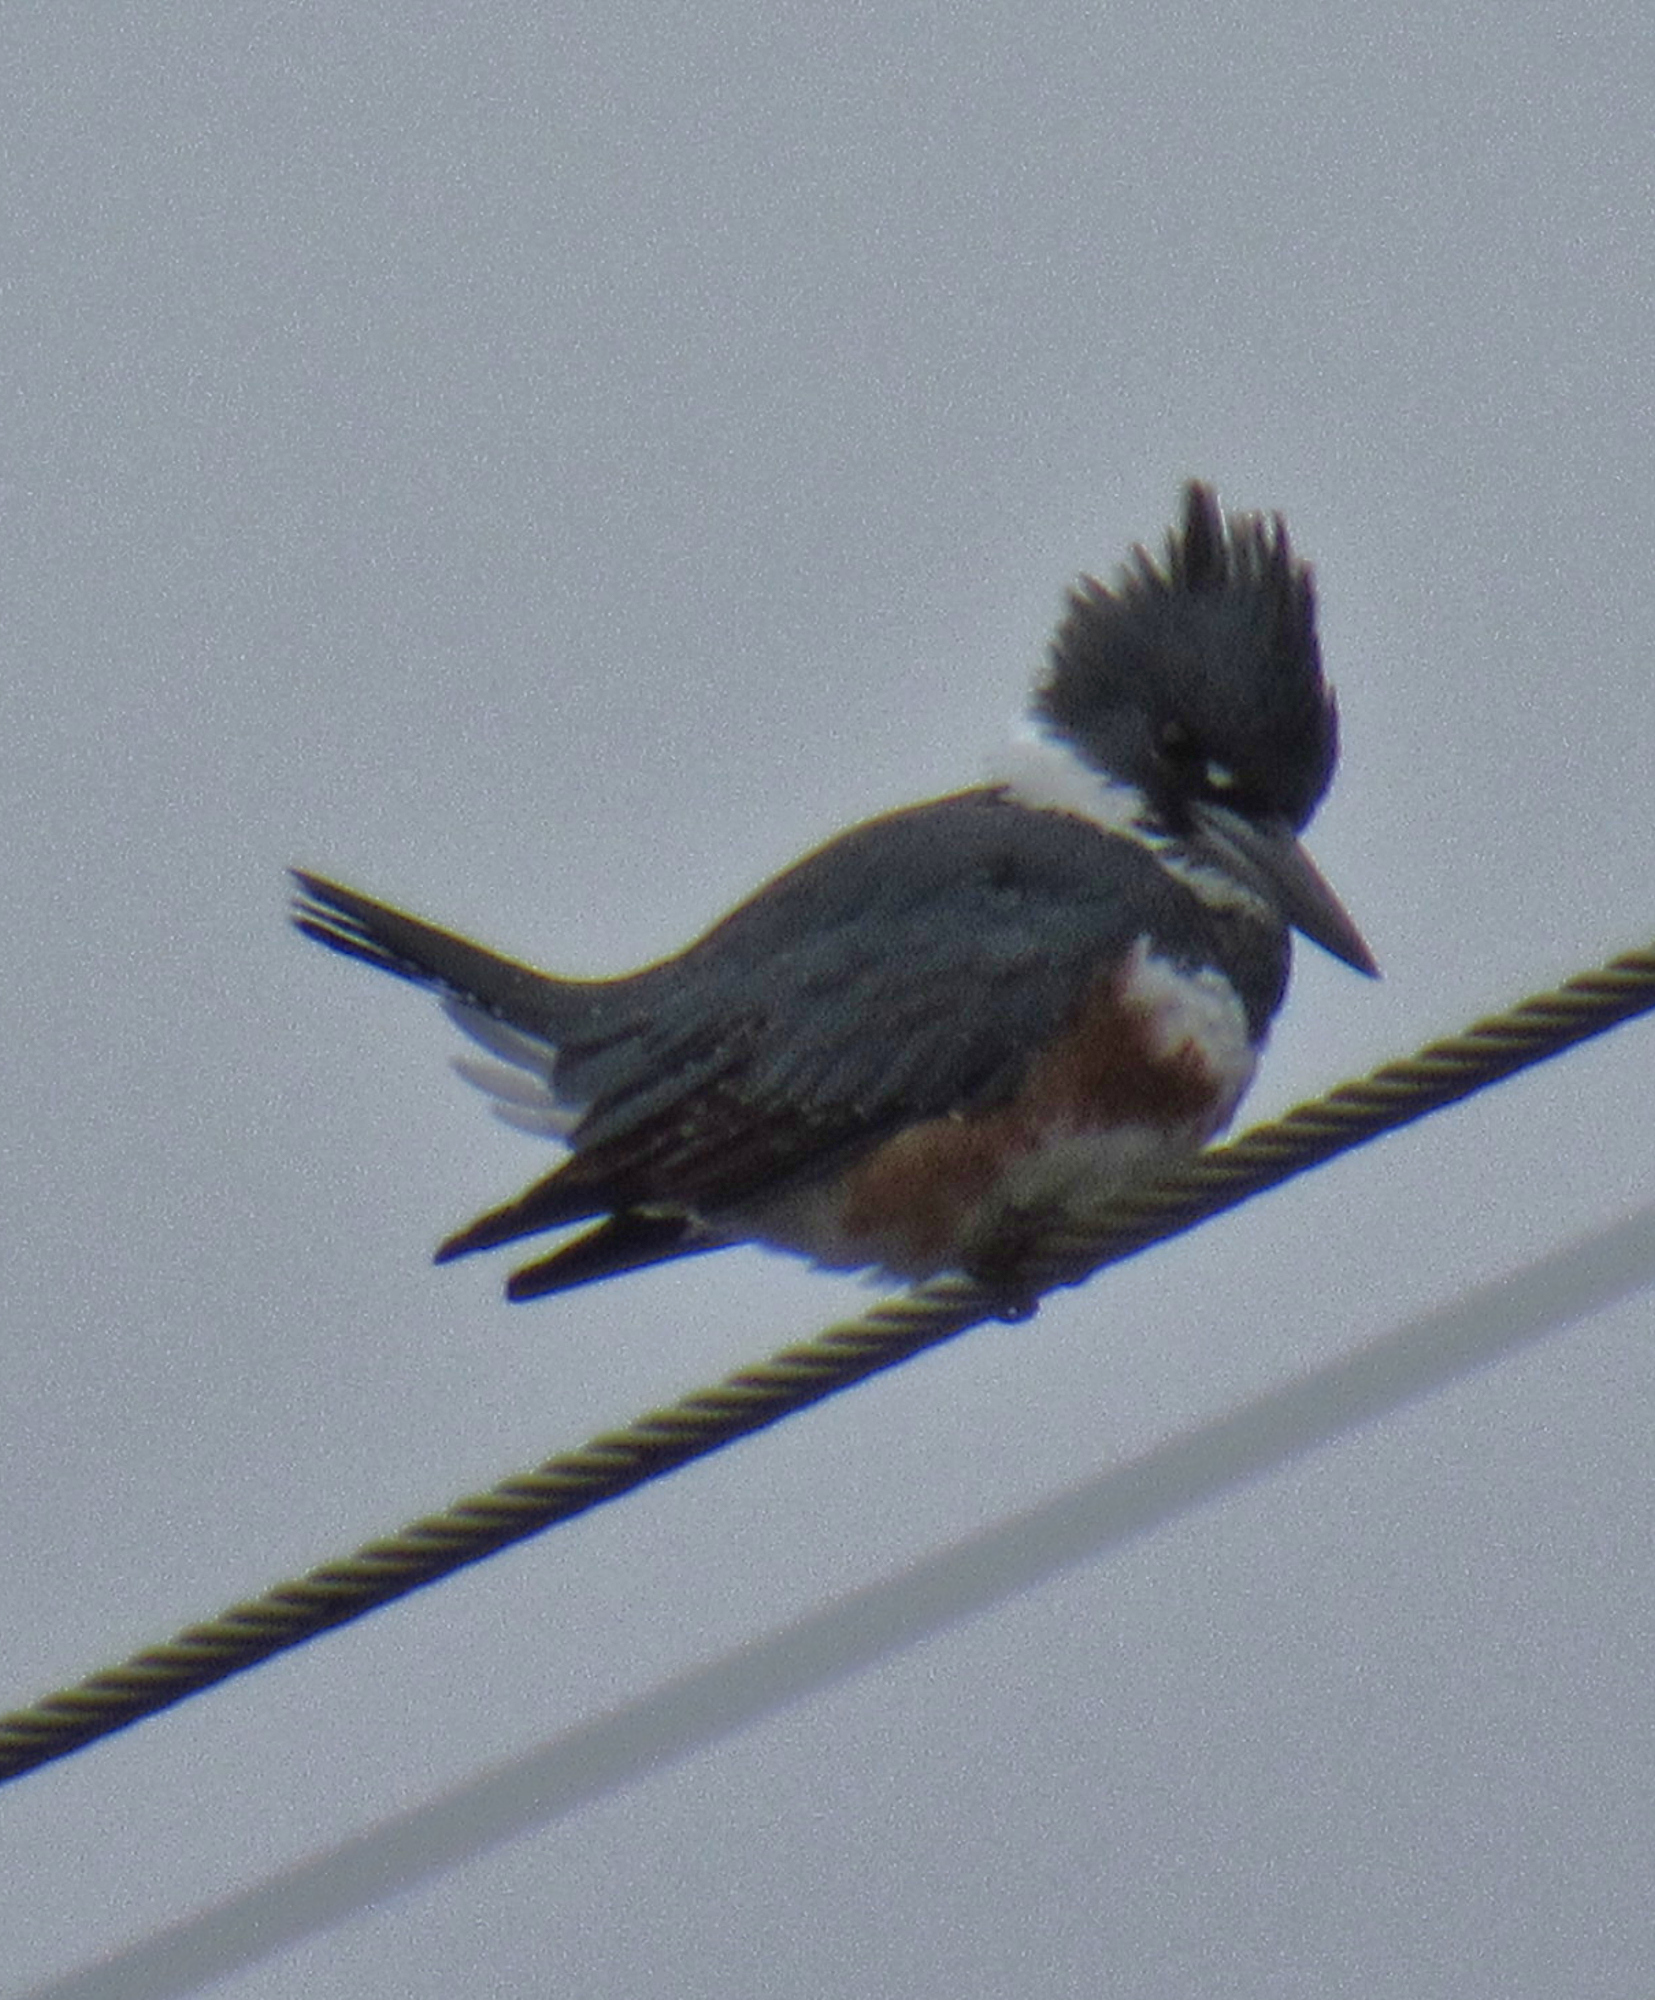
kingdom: Animalia
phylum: Chordata
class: Aves
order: Coraciiformes
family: Alcedinidae
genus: Megaceryle
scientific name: Megaceryle alcyon
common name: Belted kingfisher
